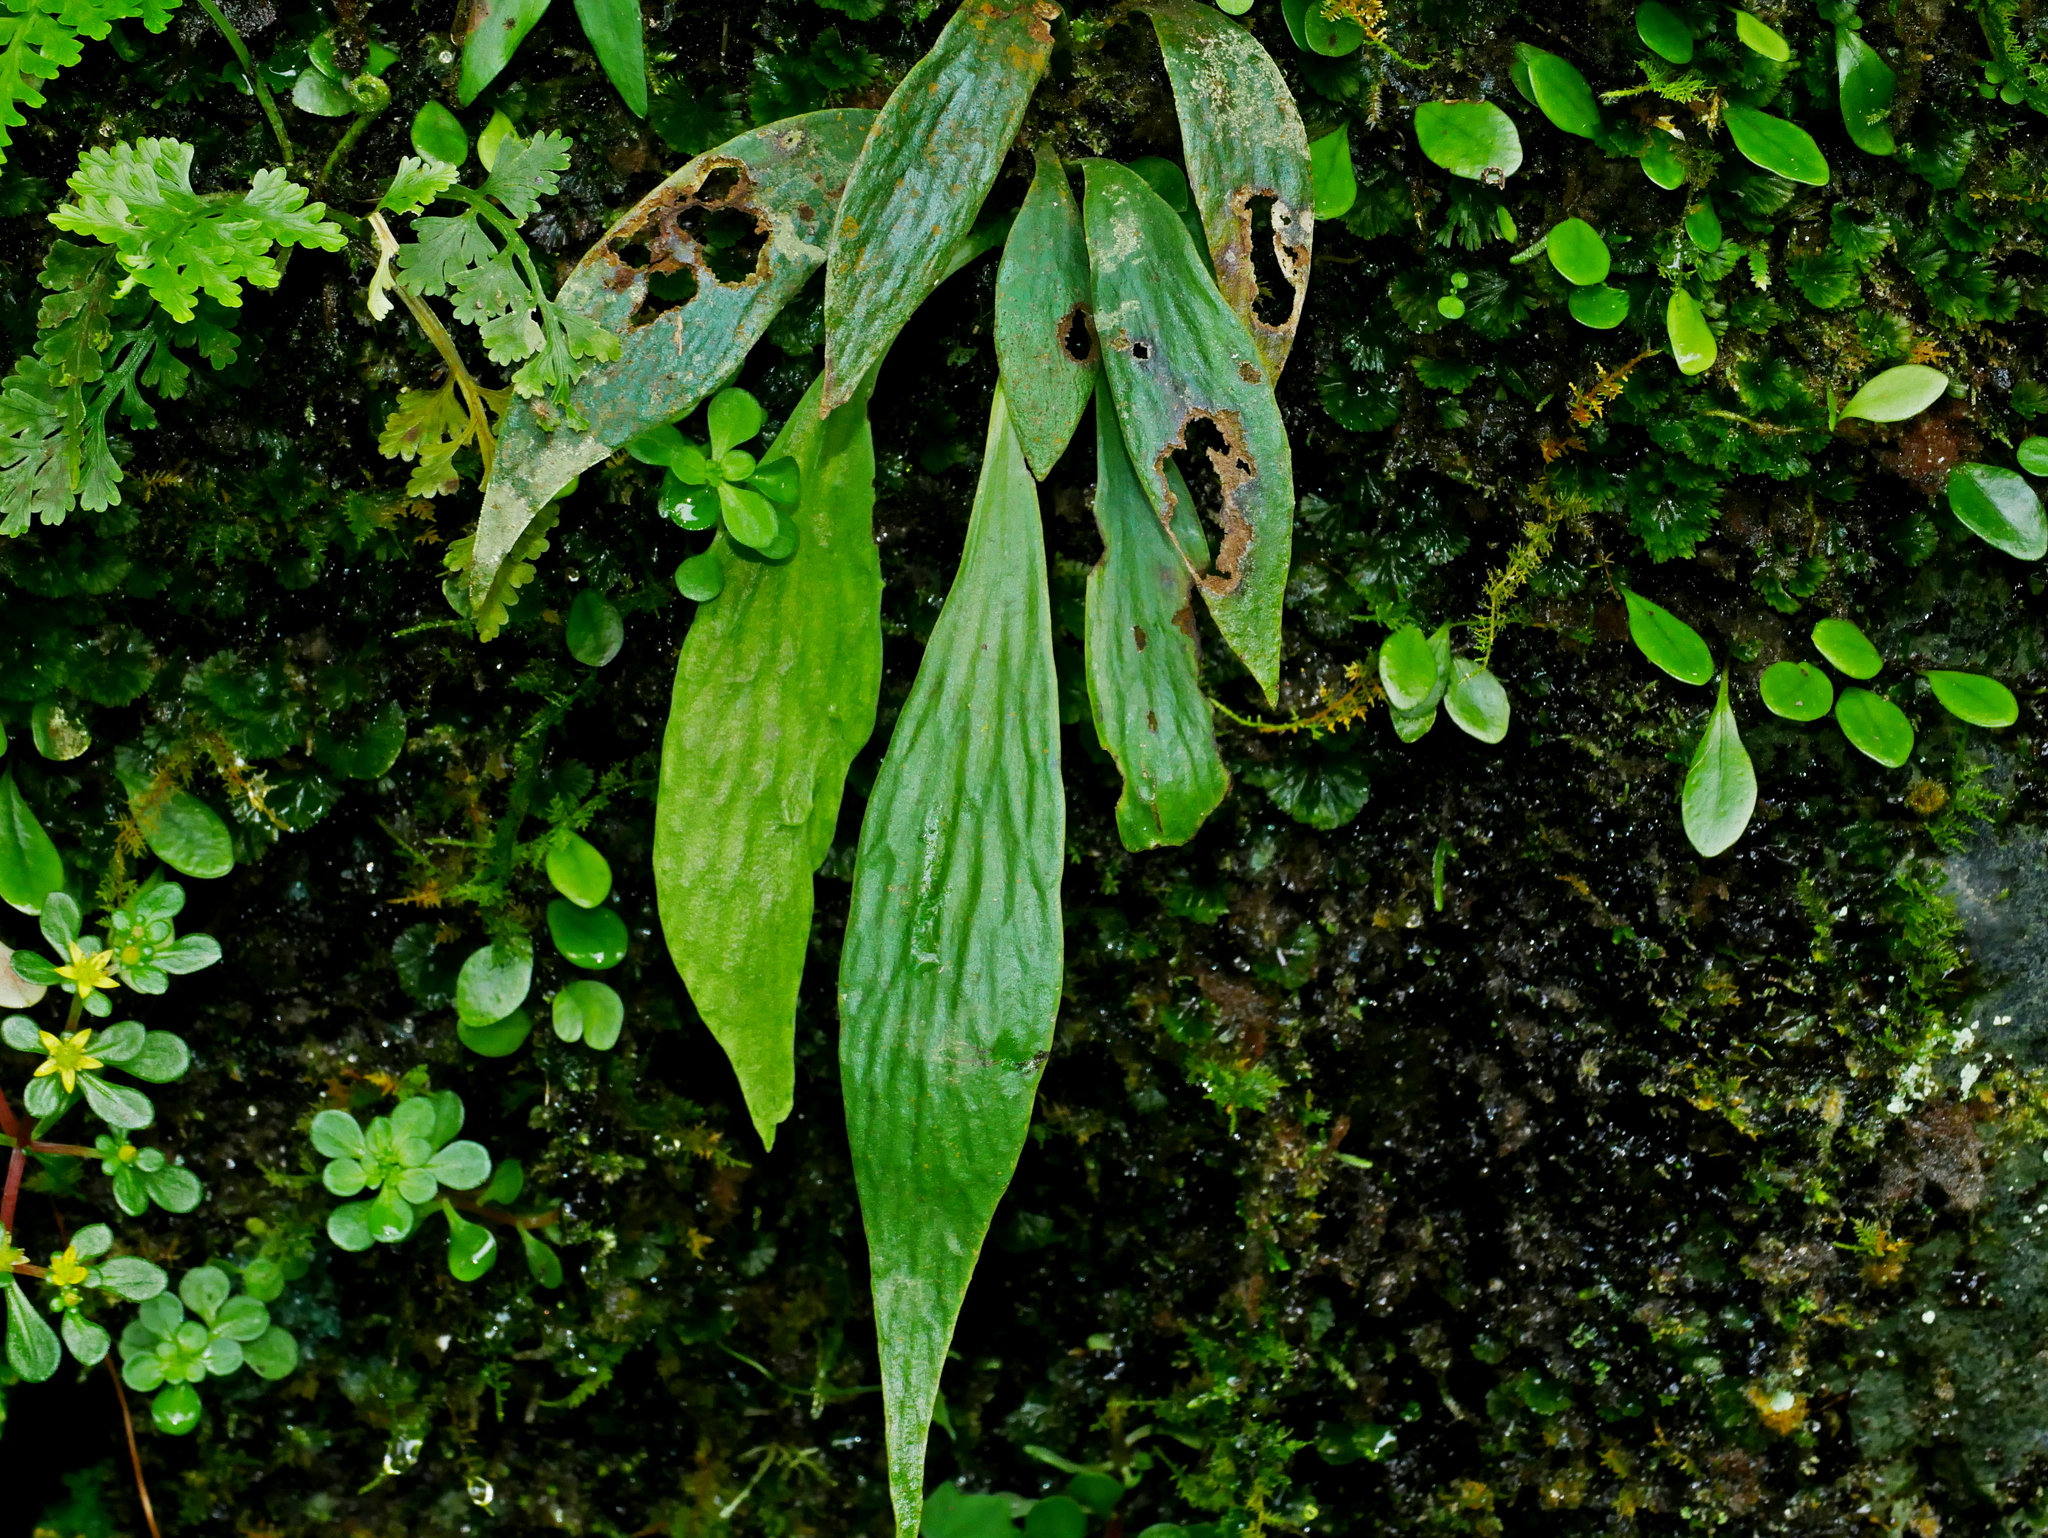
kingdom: Plantae
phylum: Tracheophyta
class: Polypodiopsida
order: Polypodiales
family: Pteridaceae
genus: Antrophyum
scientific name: Antrophyum formosanum
